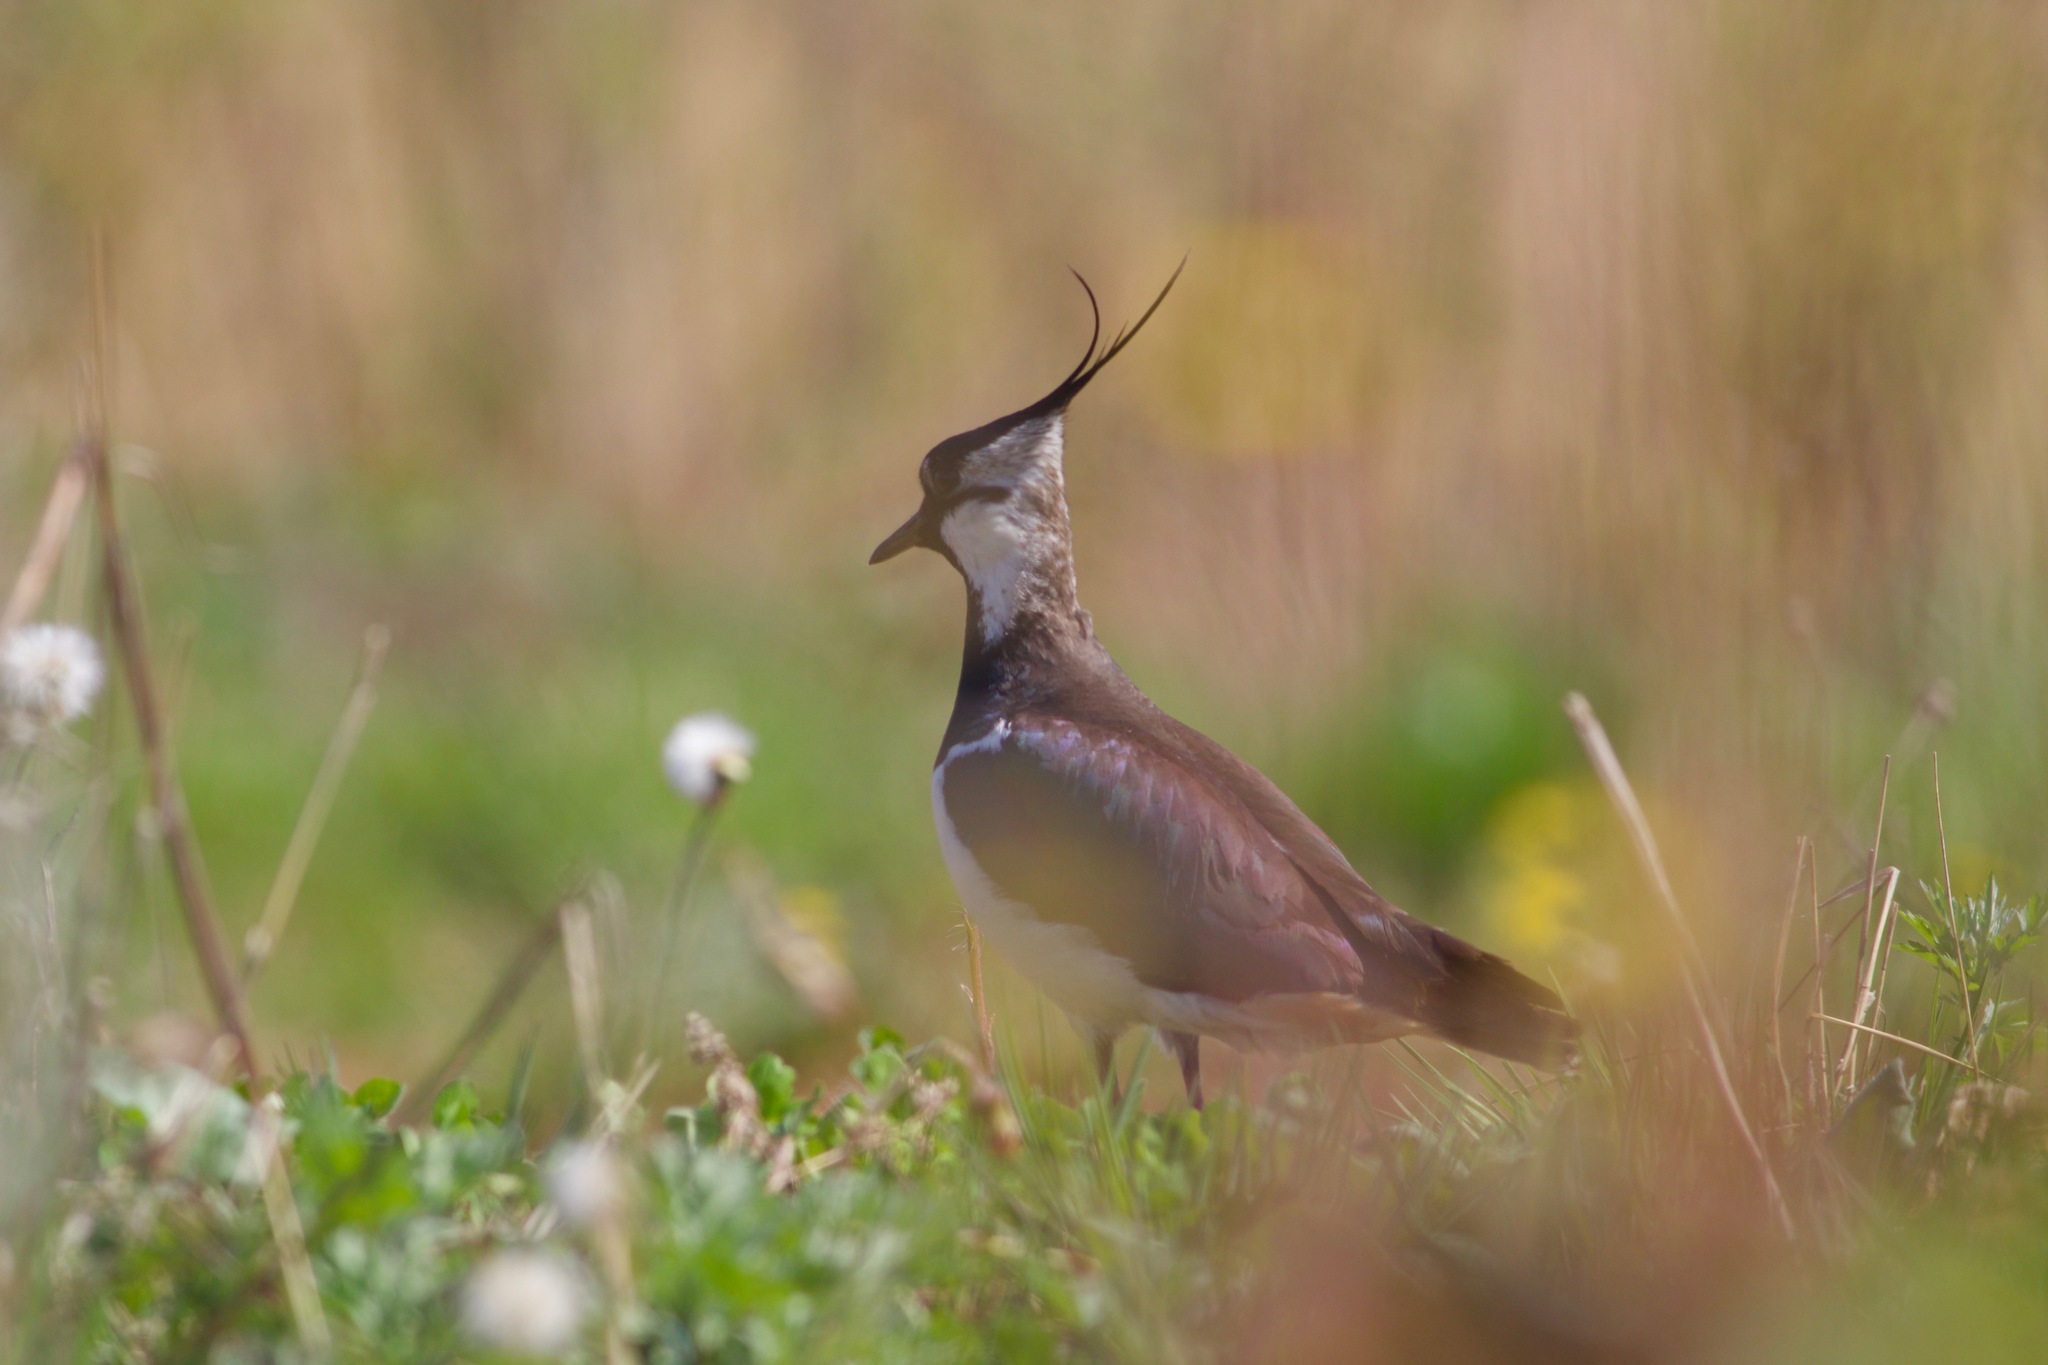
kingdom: Animalia
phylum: Chordata
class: Aves
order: Charadriiformes
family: Charadriidae
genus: Vanellus
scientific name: Vanellus vanellus
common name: Northern lapwing
